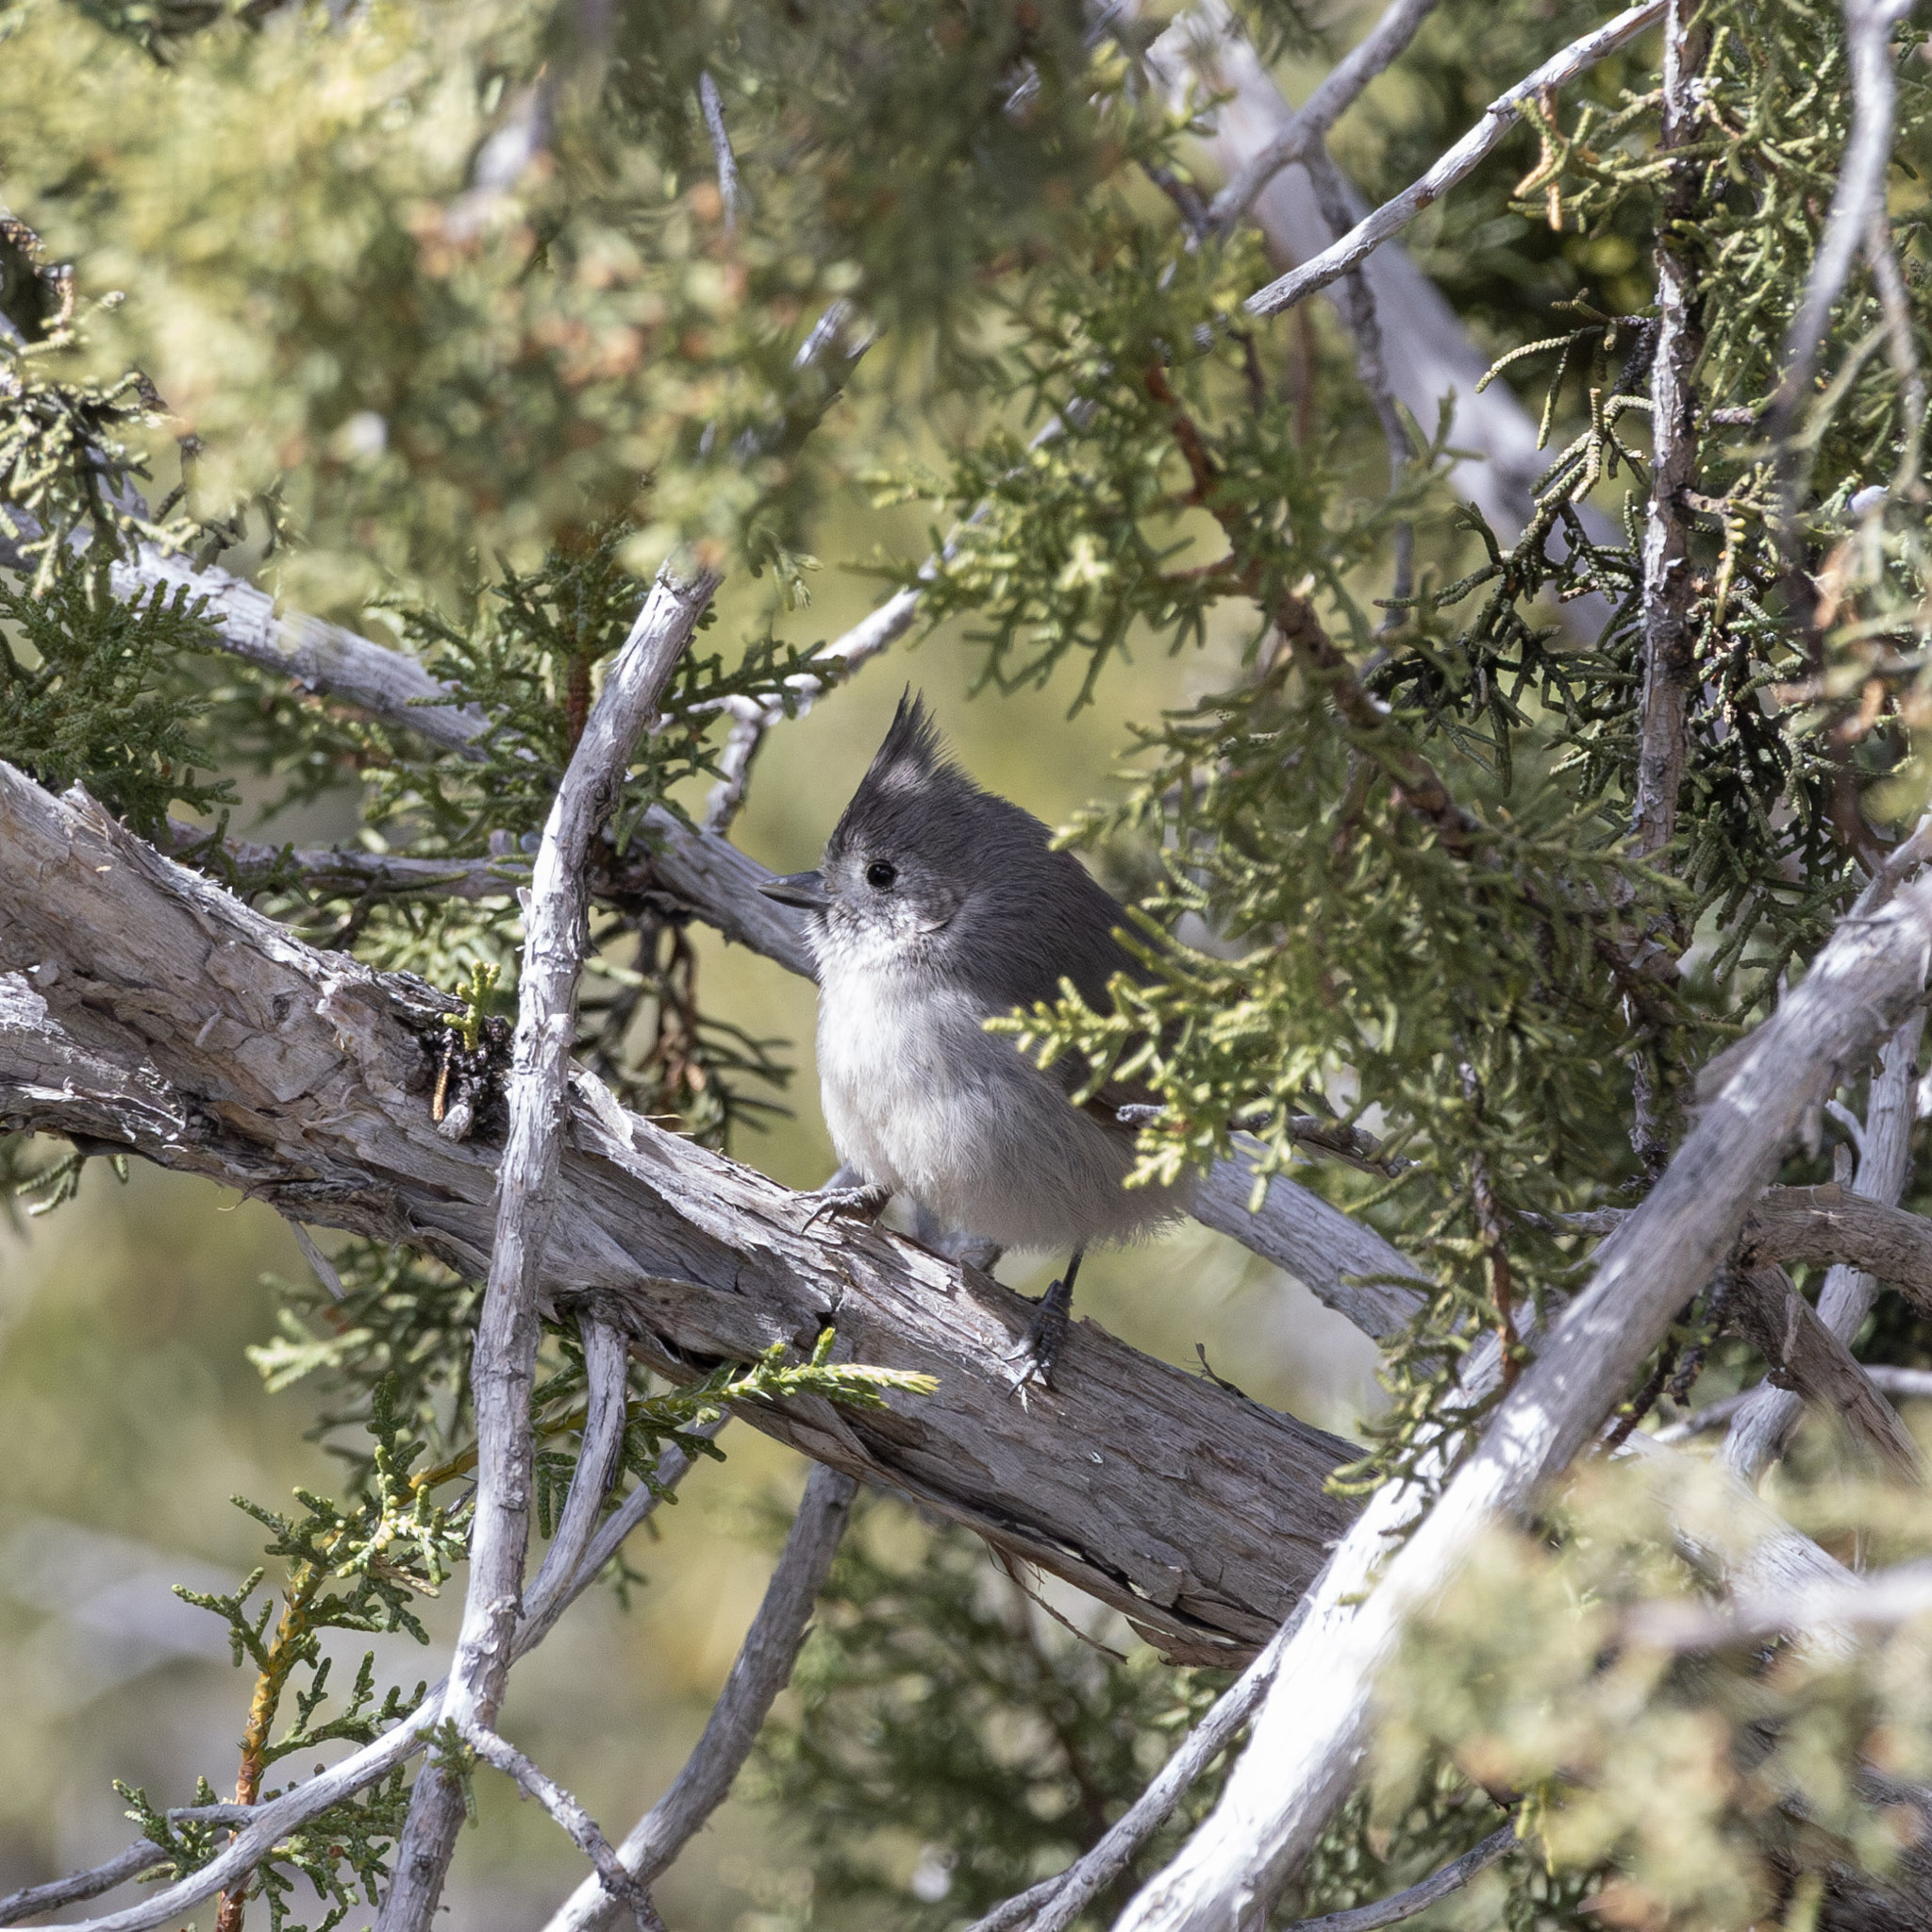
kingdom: Animalia
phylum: Chordata
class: Aves
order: Passeriformes
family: Paridae
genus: Baeolophus
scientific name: Baeolophus ridgwayi
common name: Juniper titmouse
